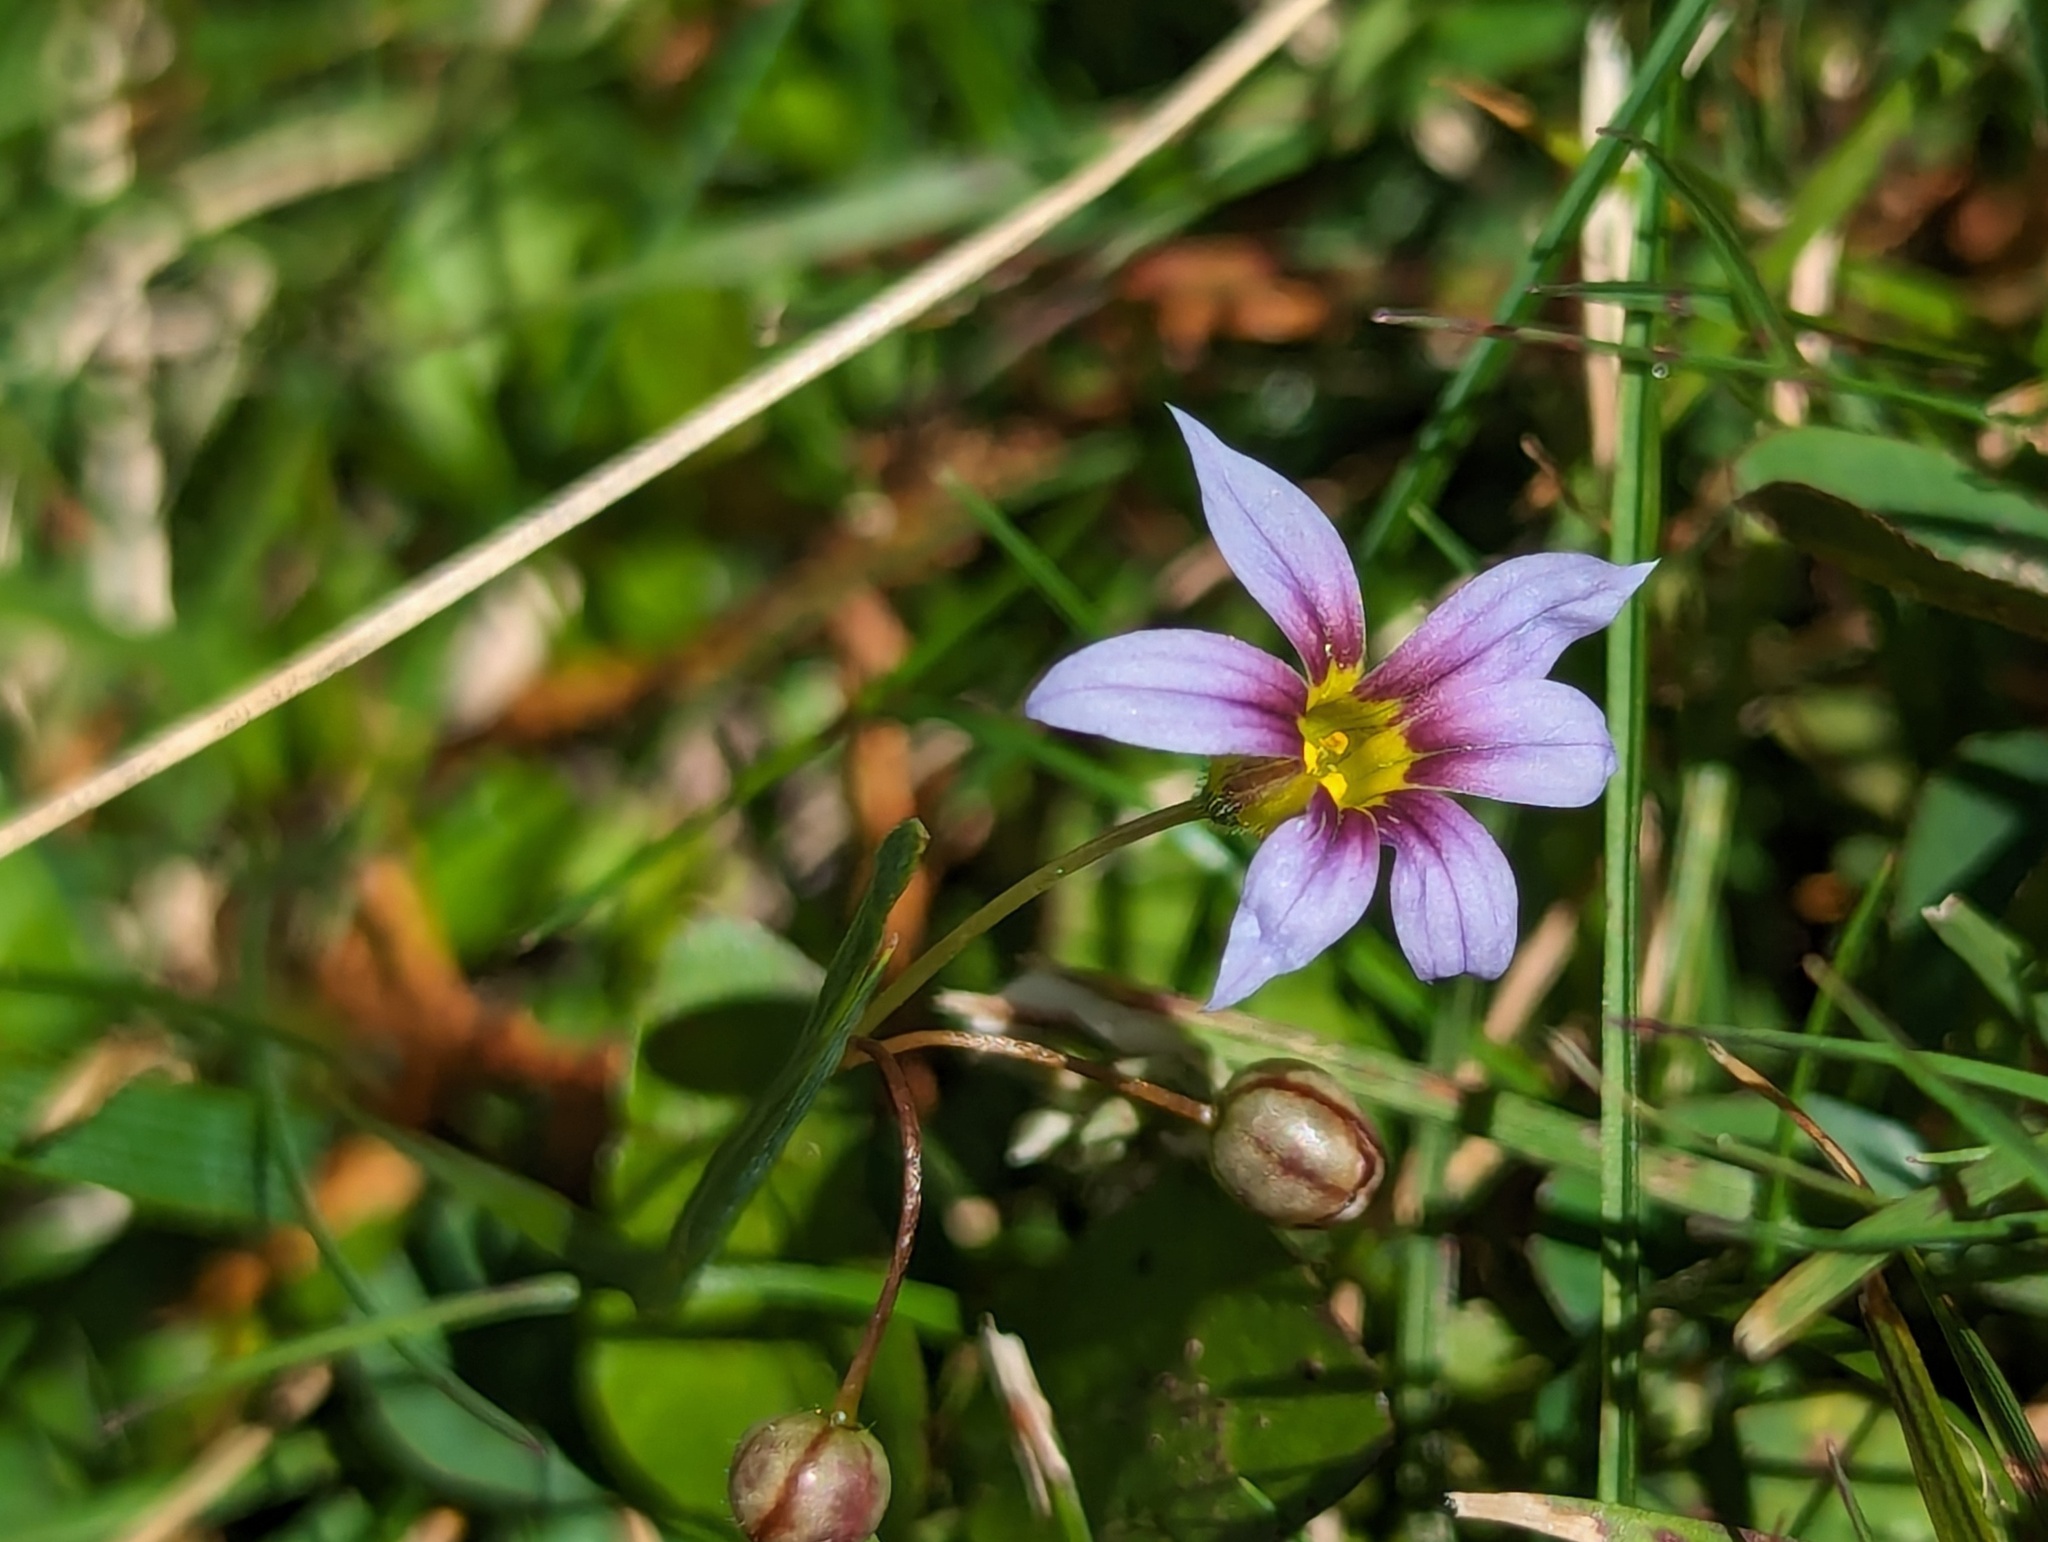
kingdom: Plantae
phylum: Tracheophyta
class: Liliopsida
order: Asparagales
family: Iridaceae
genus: Sisyrinchium
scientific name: Sisyrinchium micranthum
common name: Bermuda pigroot
